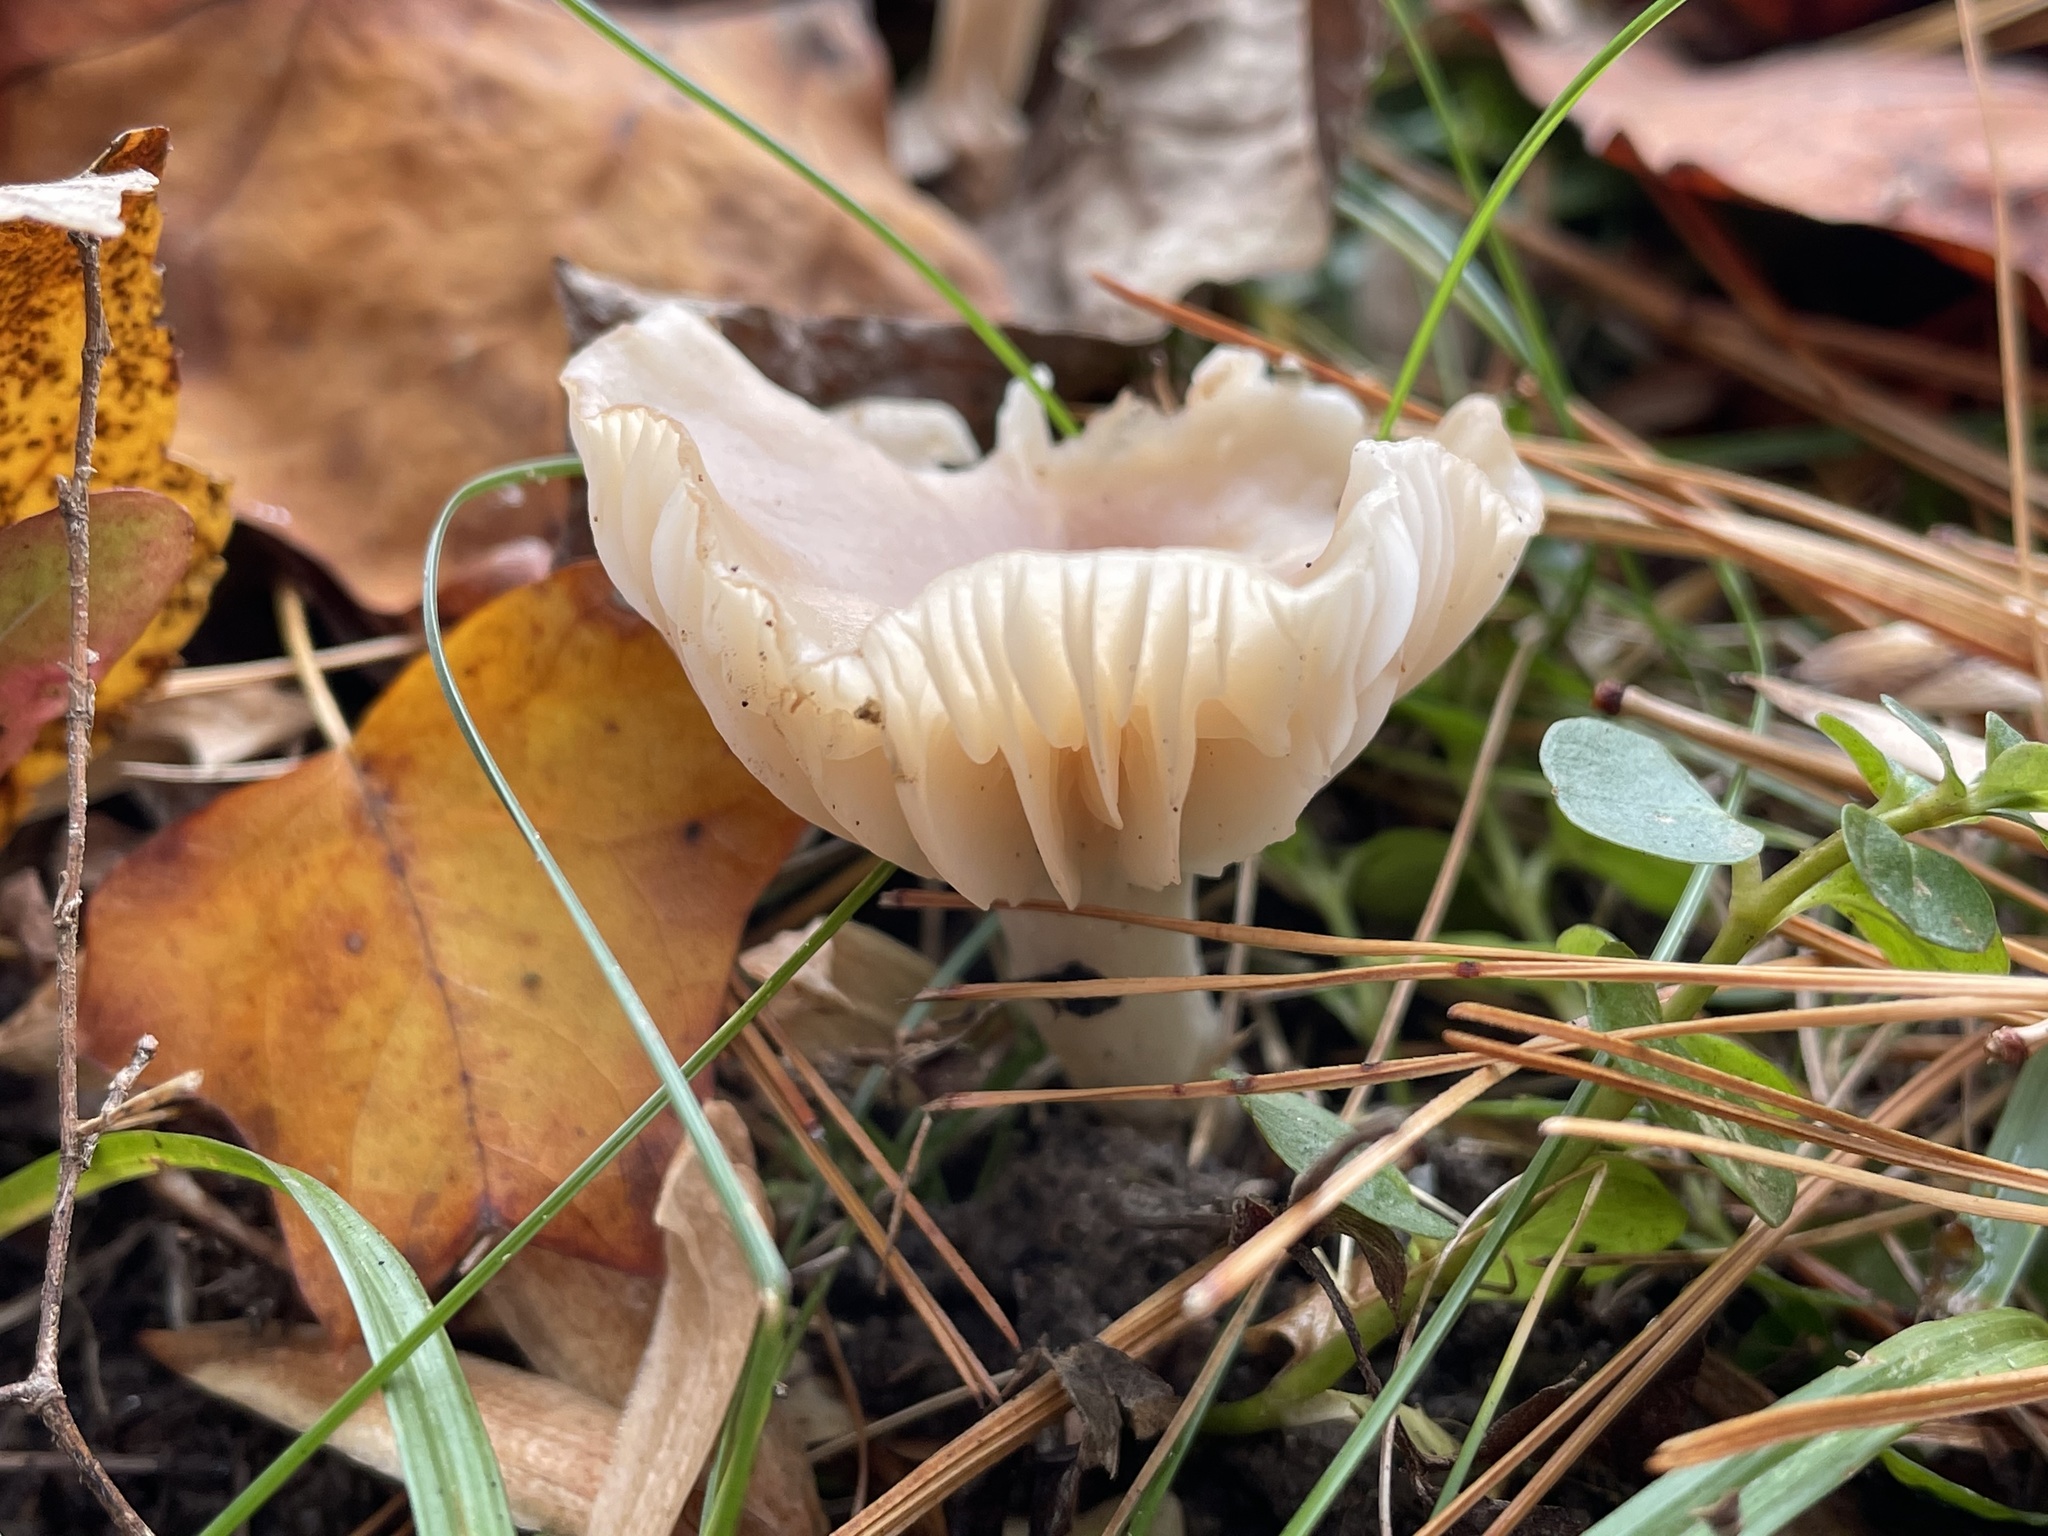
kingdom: Fungi
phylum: Basidiomycota
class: Agaricomycetes
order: Agaricales
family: Hygrophoraceae
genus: Cuphophyllus
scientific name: Cuphophyllus pratensis
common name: Meadow waxcap
